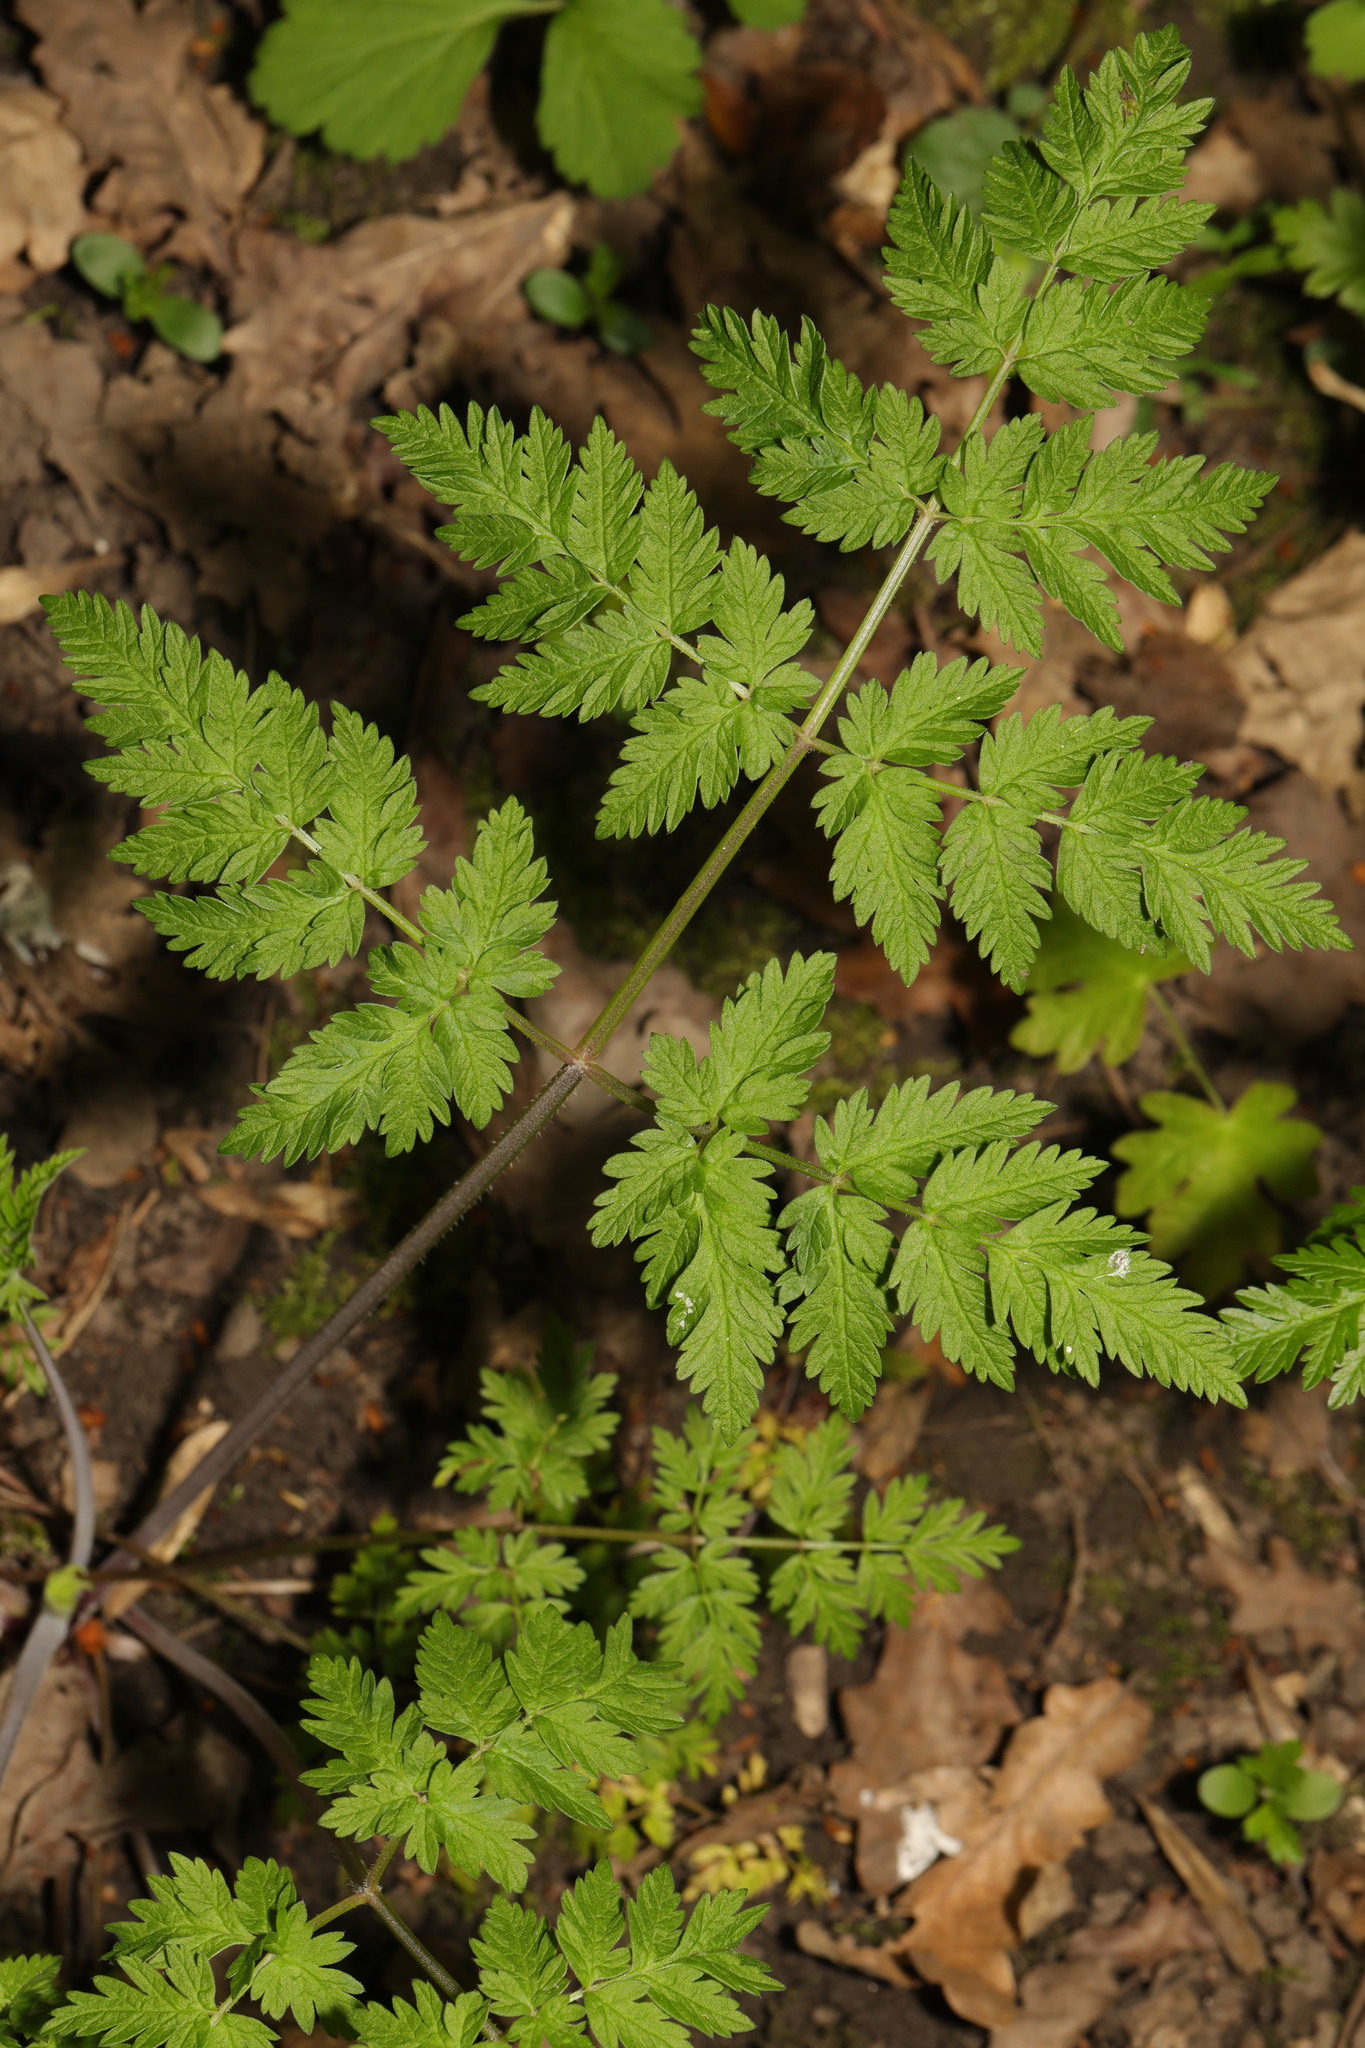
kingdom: Plantae
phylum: Tracheophyta
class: Magnoliopsida
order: Apiales
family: Apiaceae
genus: Anthriscus
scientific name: Anthriscus sylvestris
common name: Cow parsley
